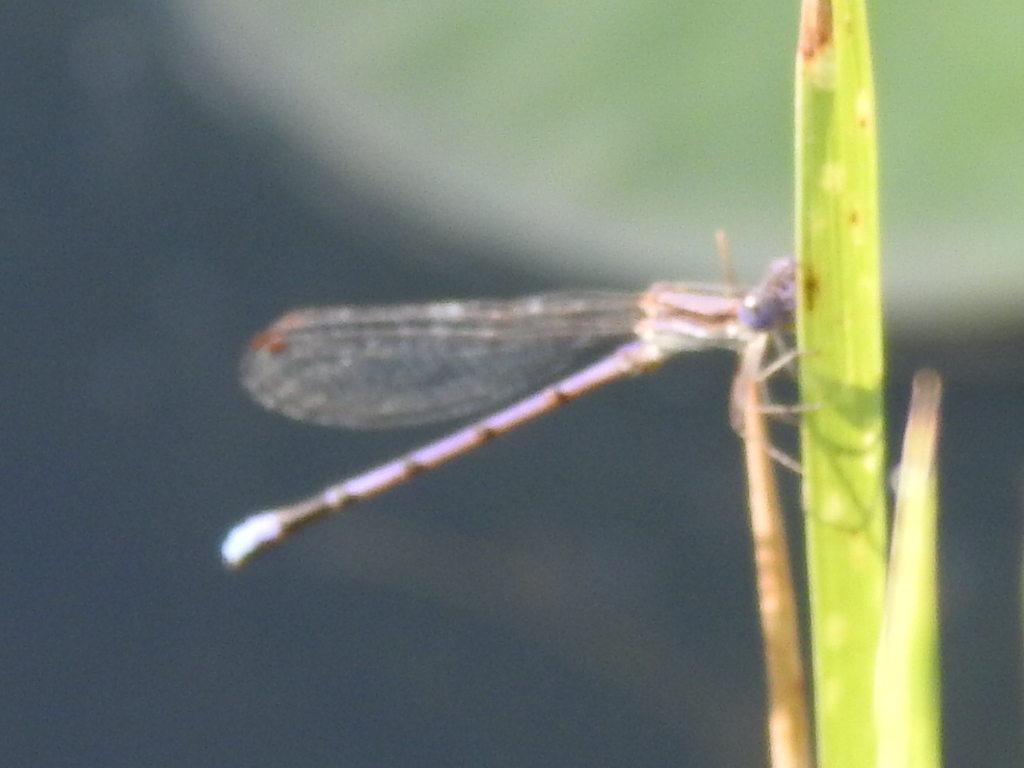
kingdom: Animalia
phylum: Arthropoda
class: Insecta
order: Odonata
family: Coenagrionidae
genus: Argia
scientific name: Argia fumipennis
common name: Variable dancer
